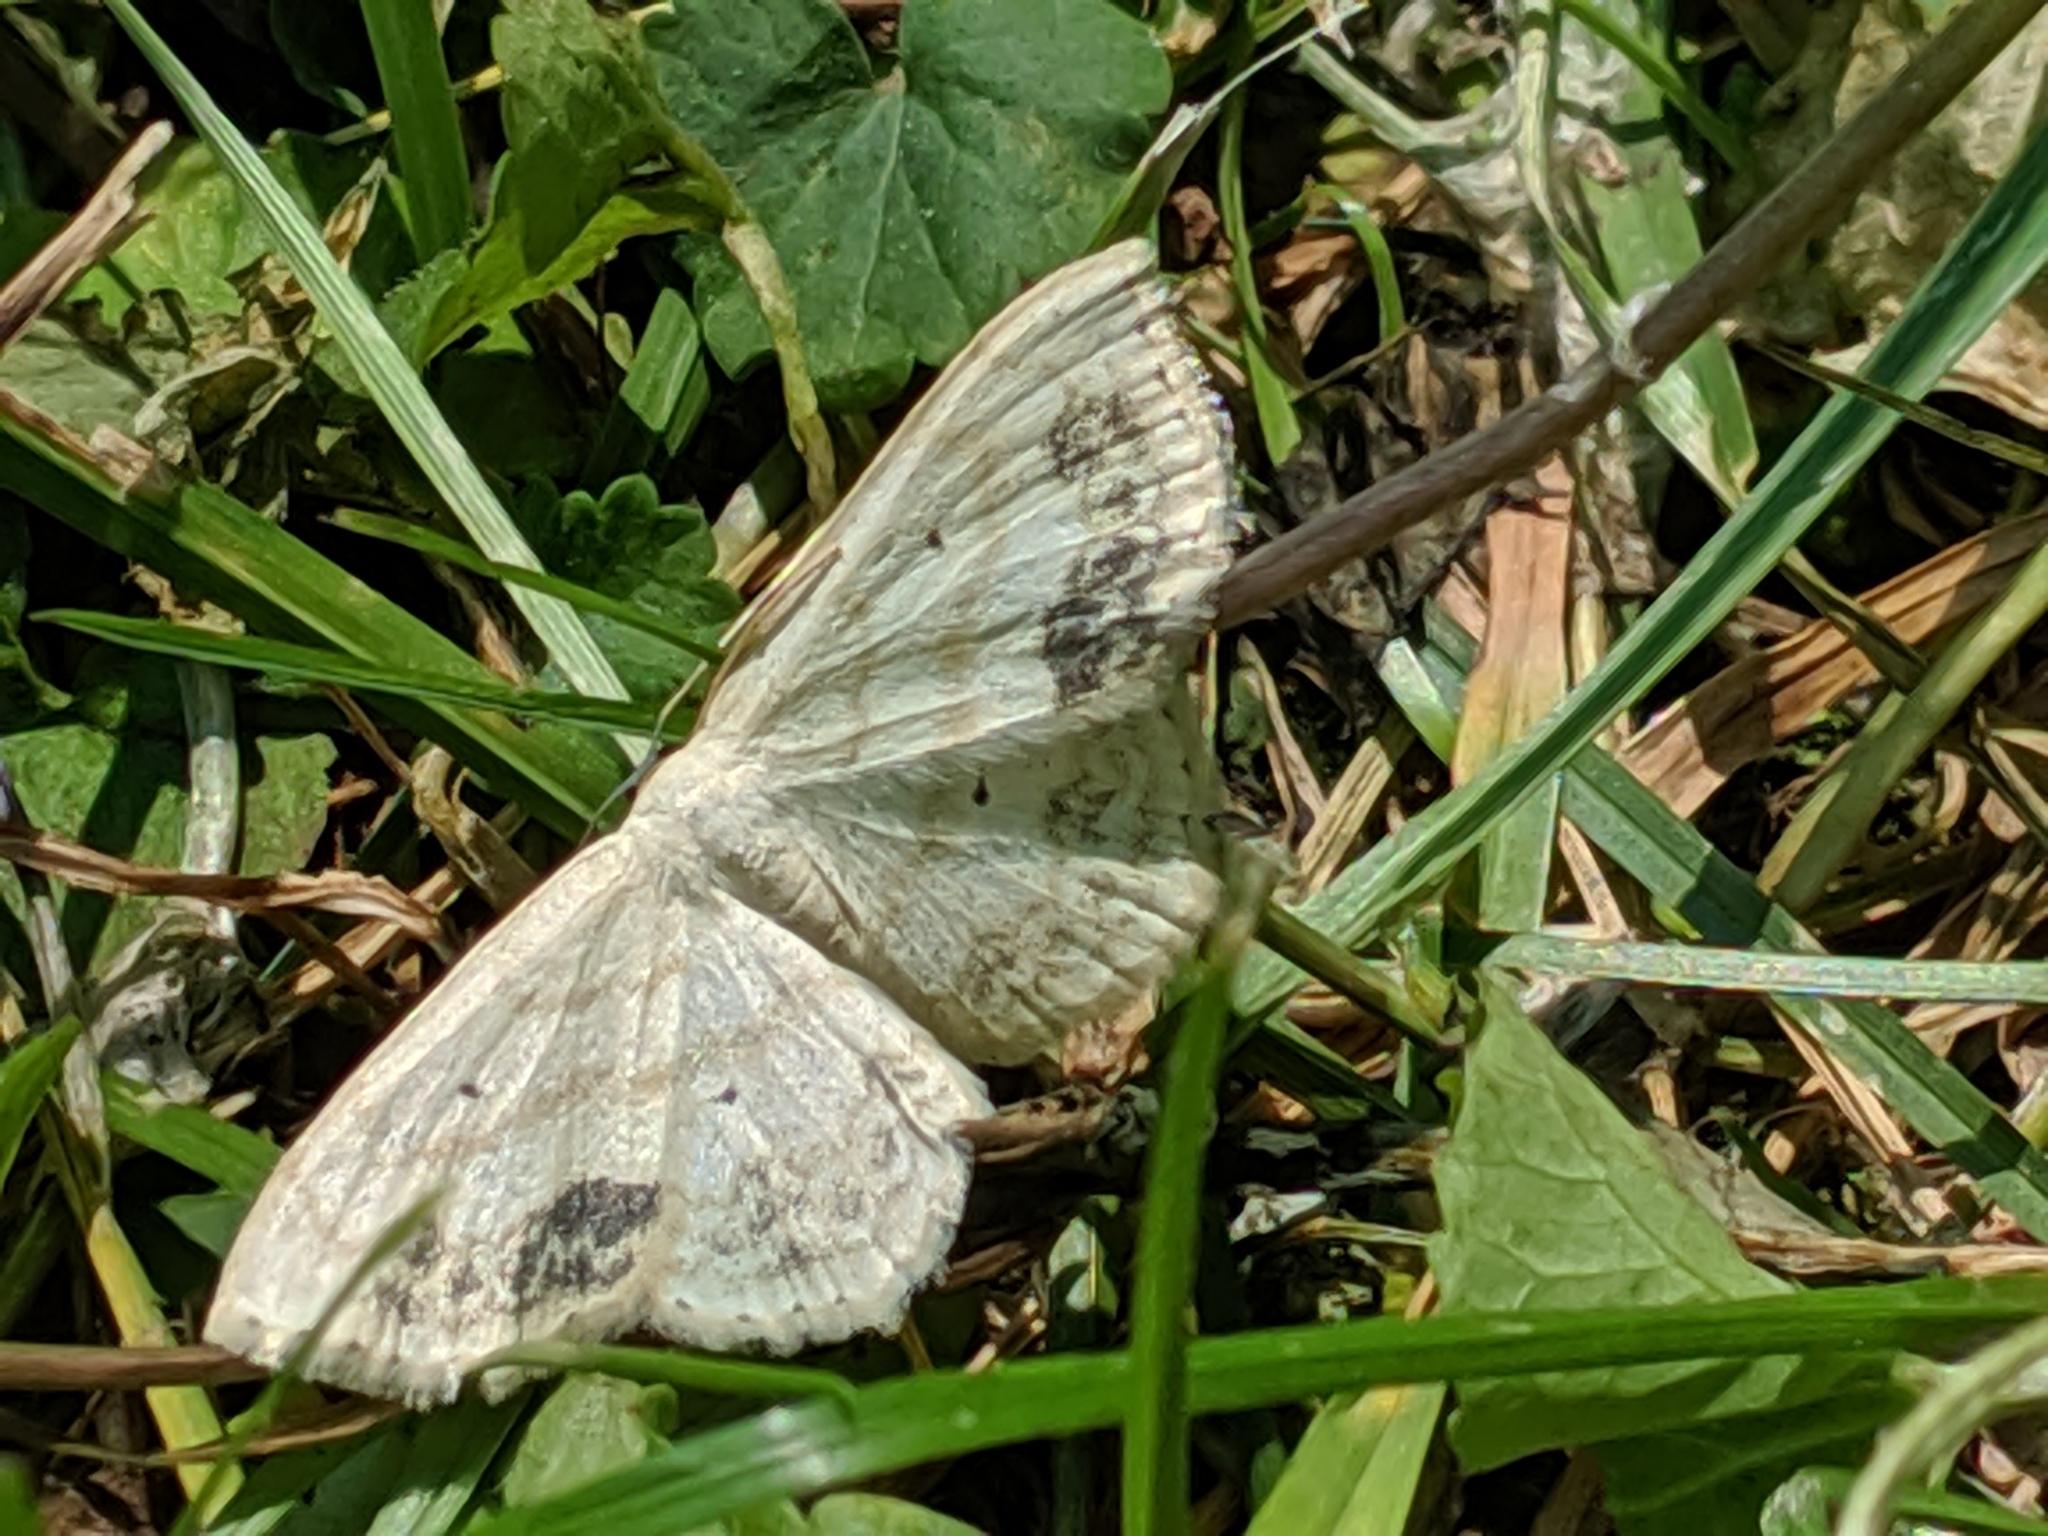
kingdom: Animalia
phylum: Arthropoda
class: Insecta
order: Lepidoptera
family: Geometridae
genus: Scopula
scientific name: Scopula limboundata
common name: Large lace border
